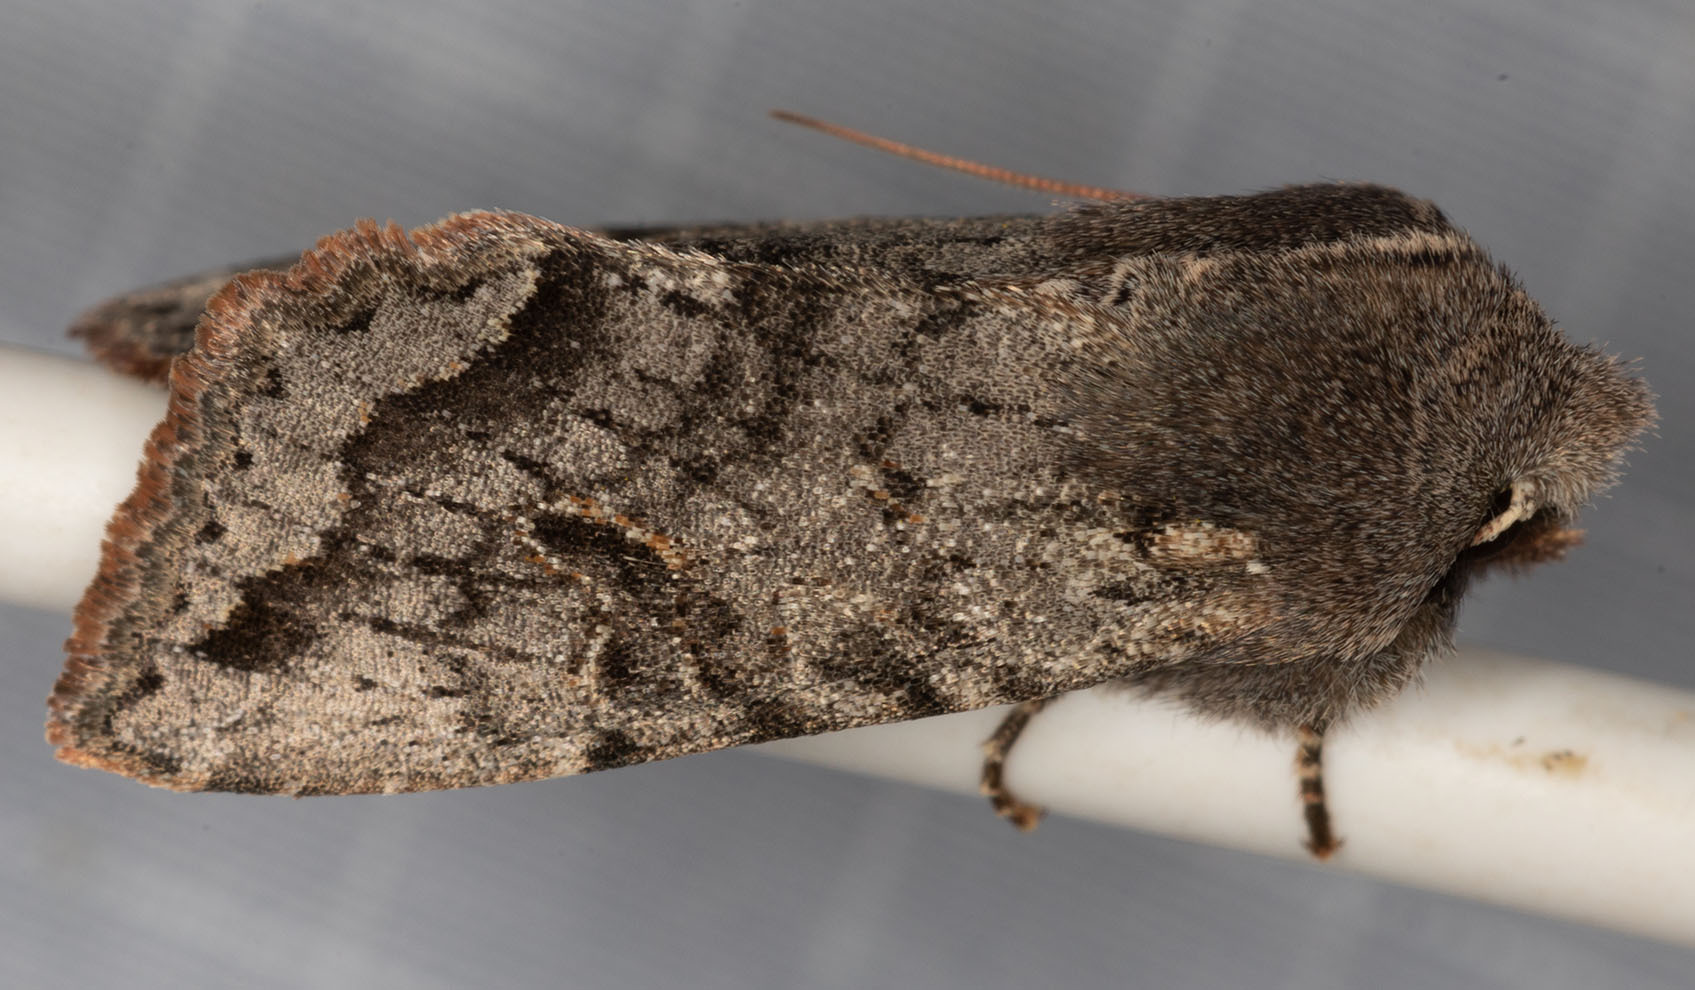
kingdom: Animalia
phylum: Arthropoda
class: Insecta
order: Lepidoptera
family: Noctuidae
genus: Orthosia
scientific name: Orthosia erythrolita
